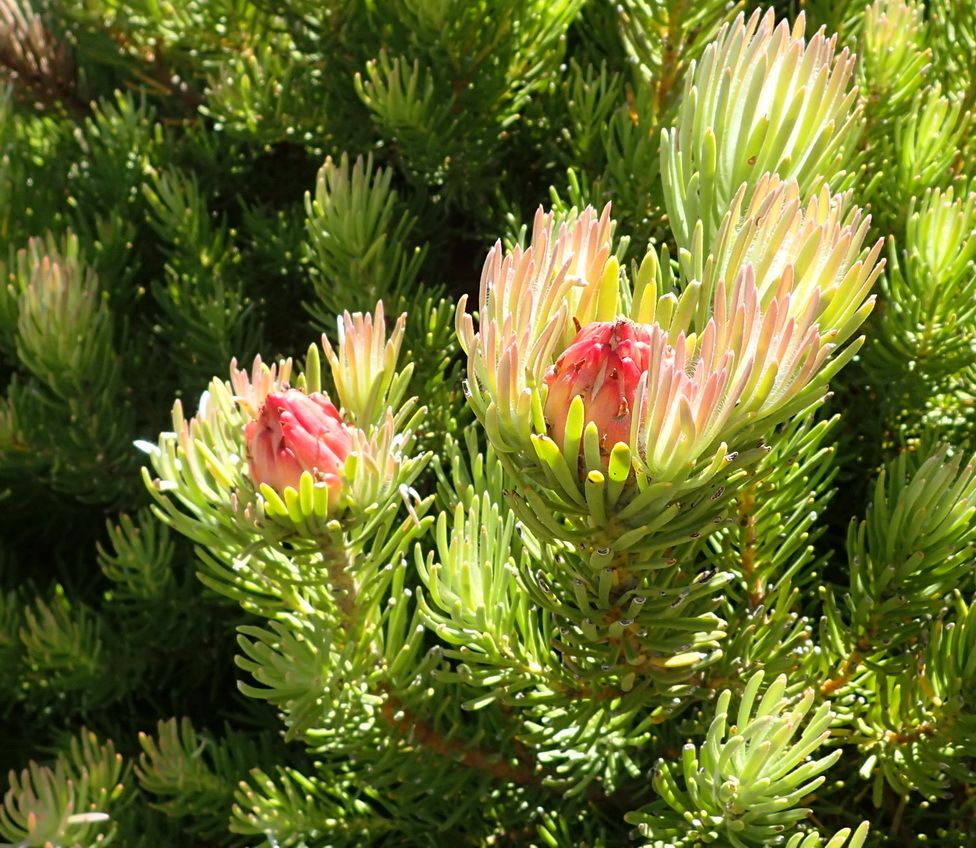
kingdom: Plantae
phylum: Tracheophyta
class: Magnoliopsida
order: Proteales
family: Proteaceae
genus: Leucadendron
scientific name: Leucadendron dregei
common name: Summit conebush
